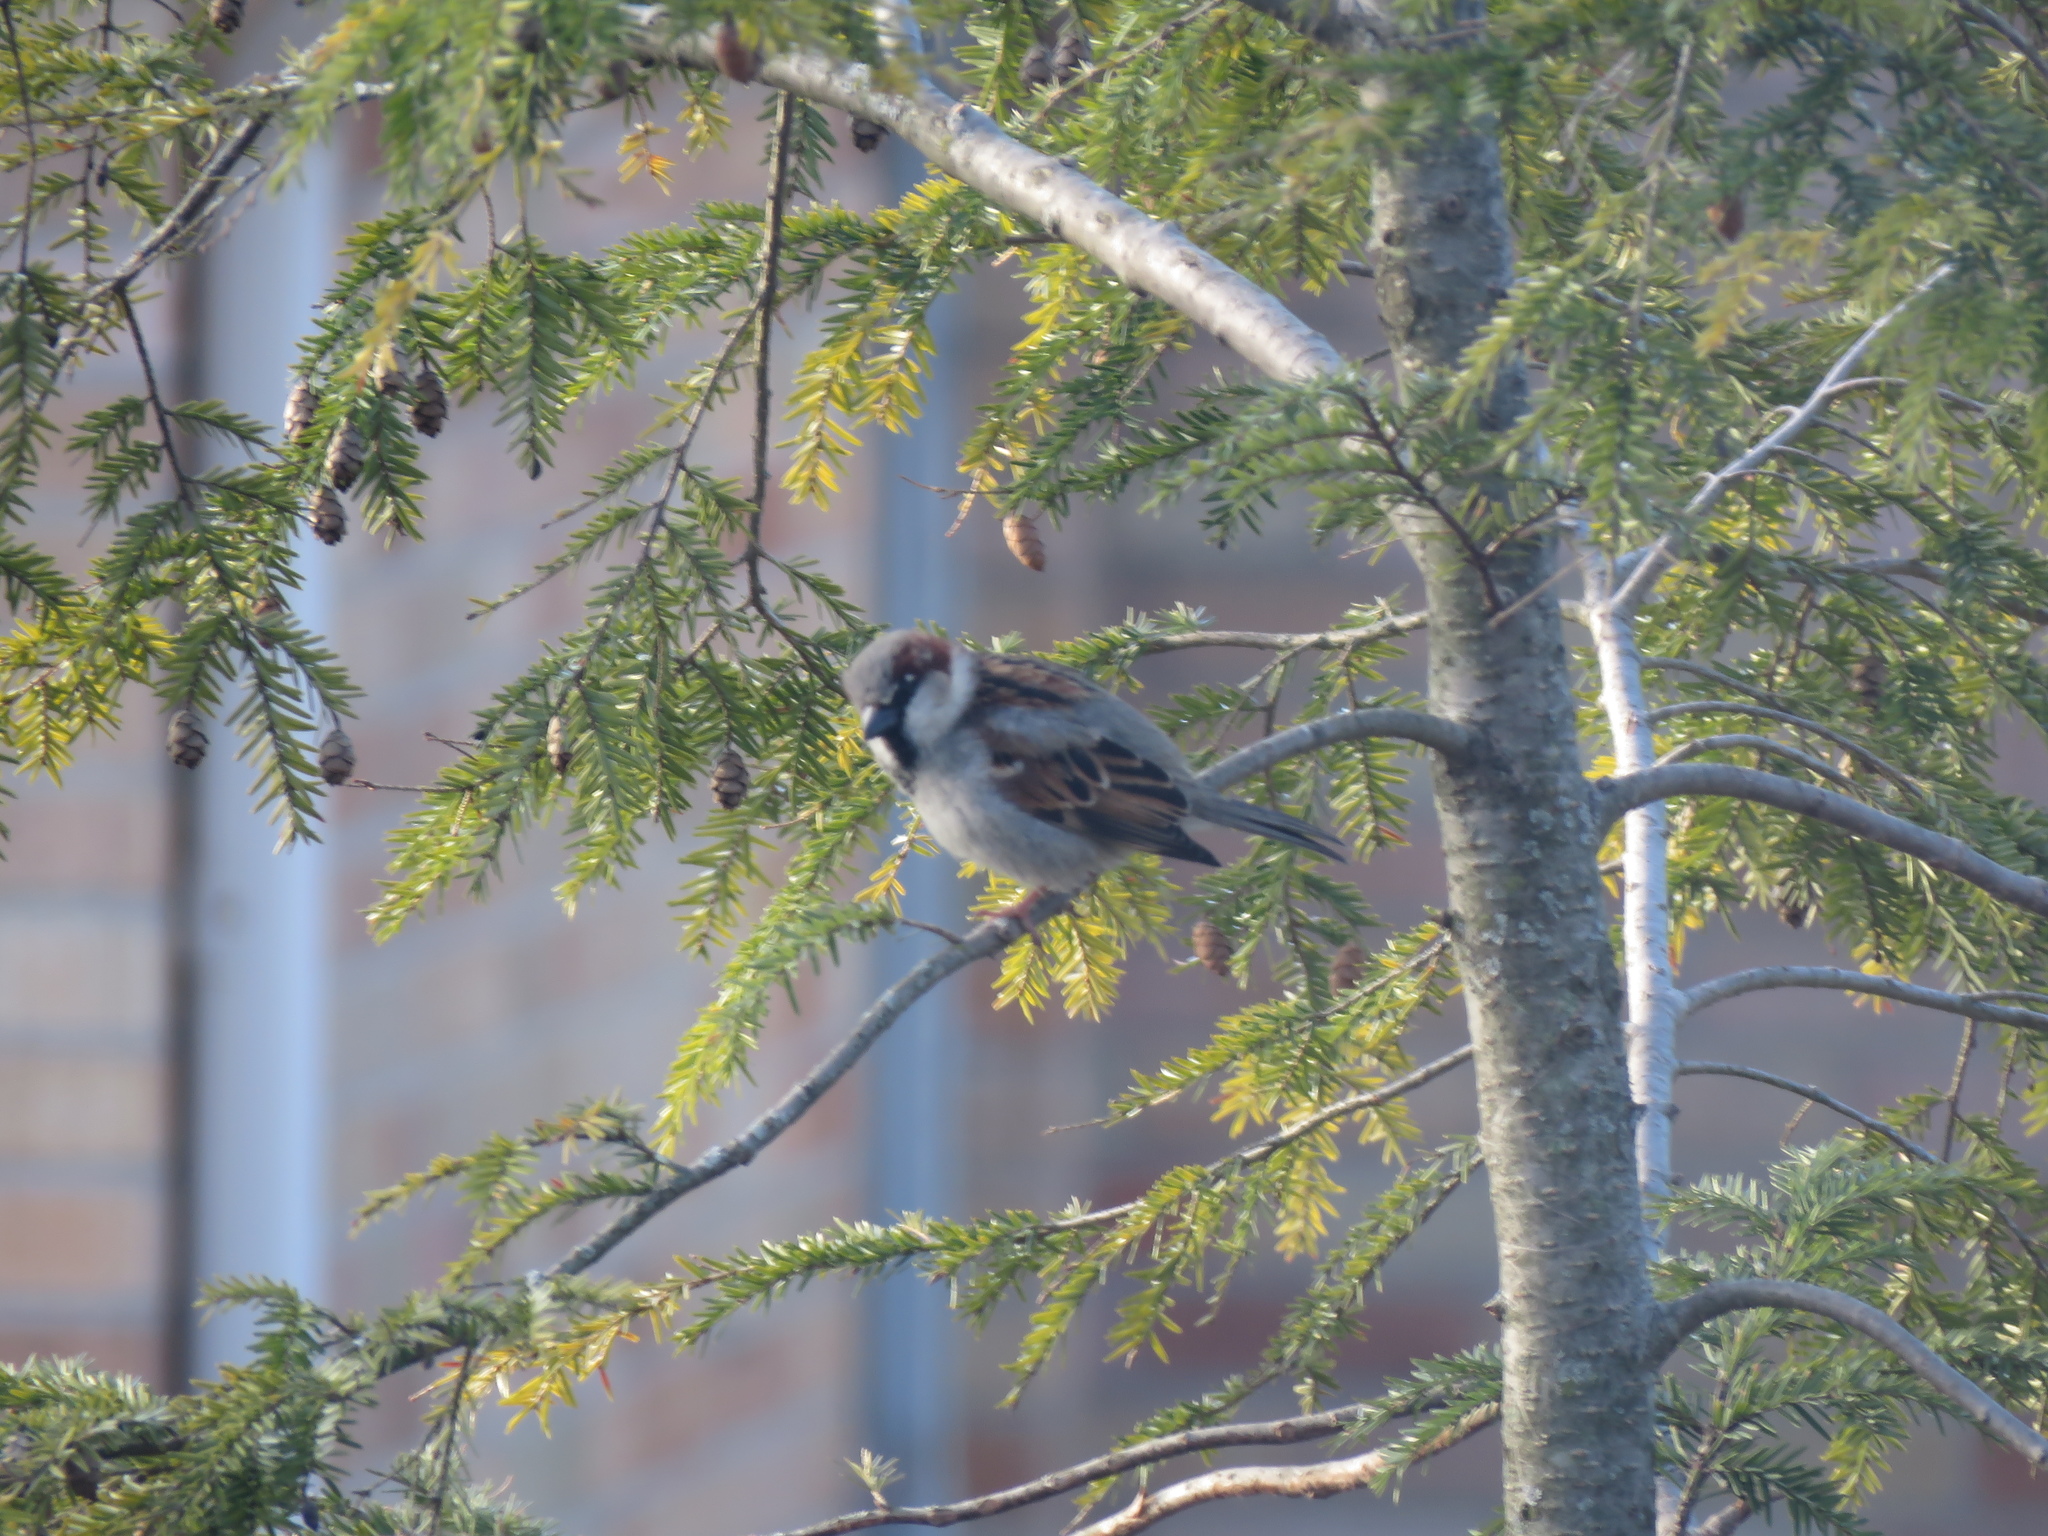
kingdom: Animalia
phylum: Chordata
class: Aves
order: Passeriformes
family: Passeridae
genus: Passer
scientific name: Passer domesticus
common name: House sparrow
